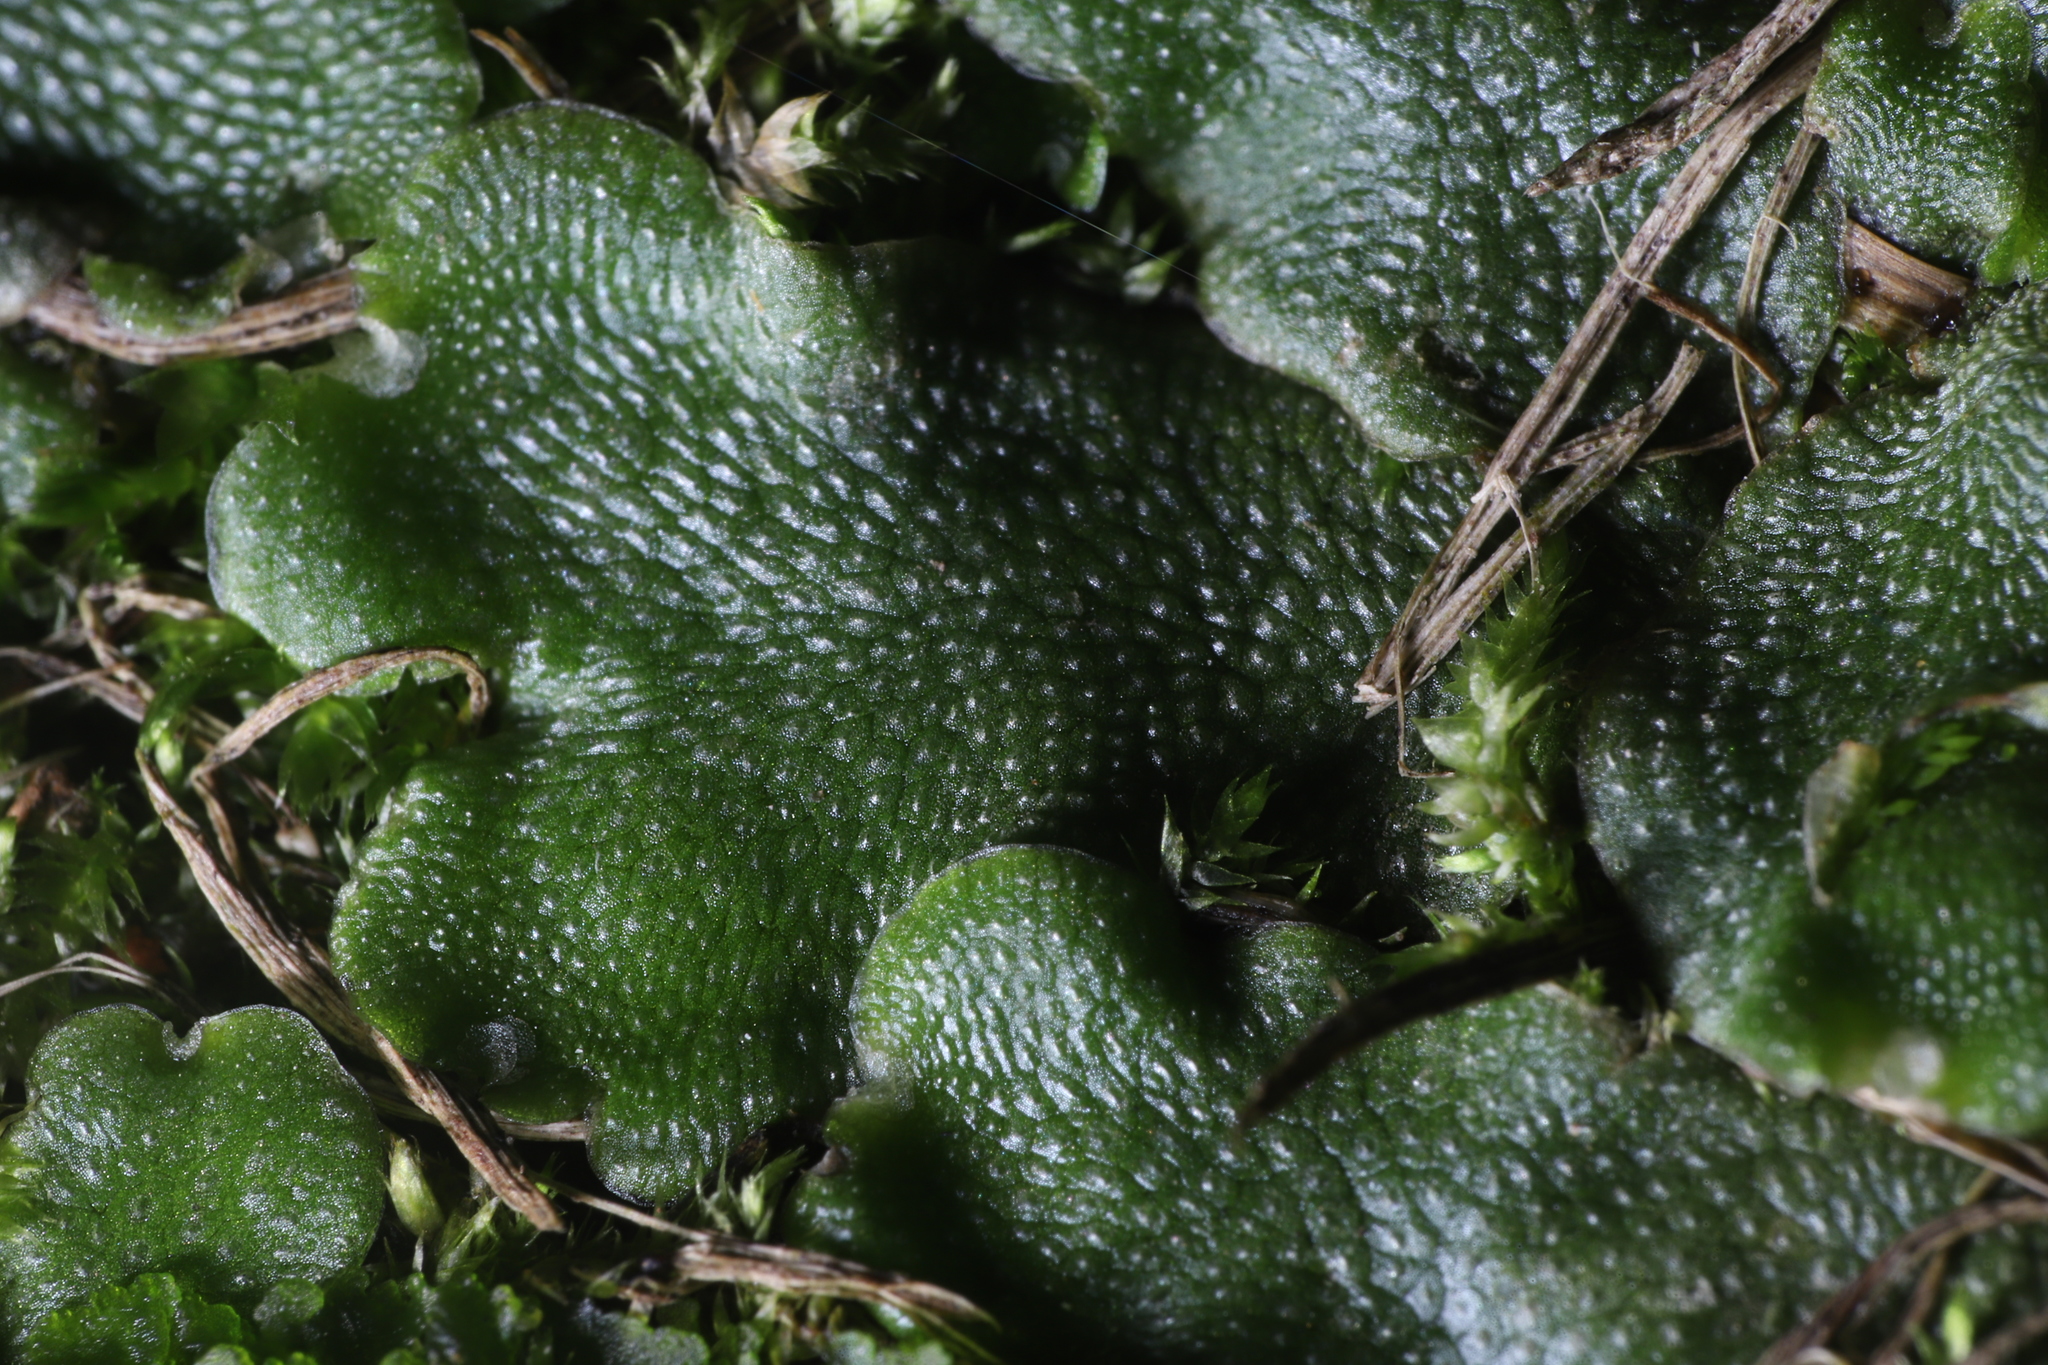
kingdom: Plantae
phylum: Marchantiophyta
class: Marchantiopsida
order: Lunulariales
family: Lunulariaceae
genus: Lunularia
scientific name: Lunularia cruciata
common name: Crescent-cup liverwort
